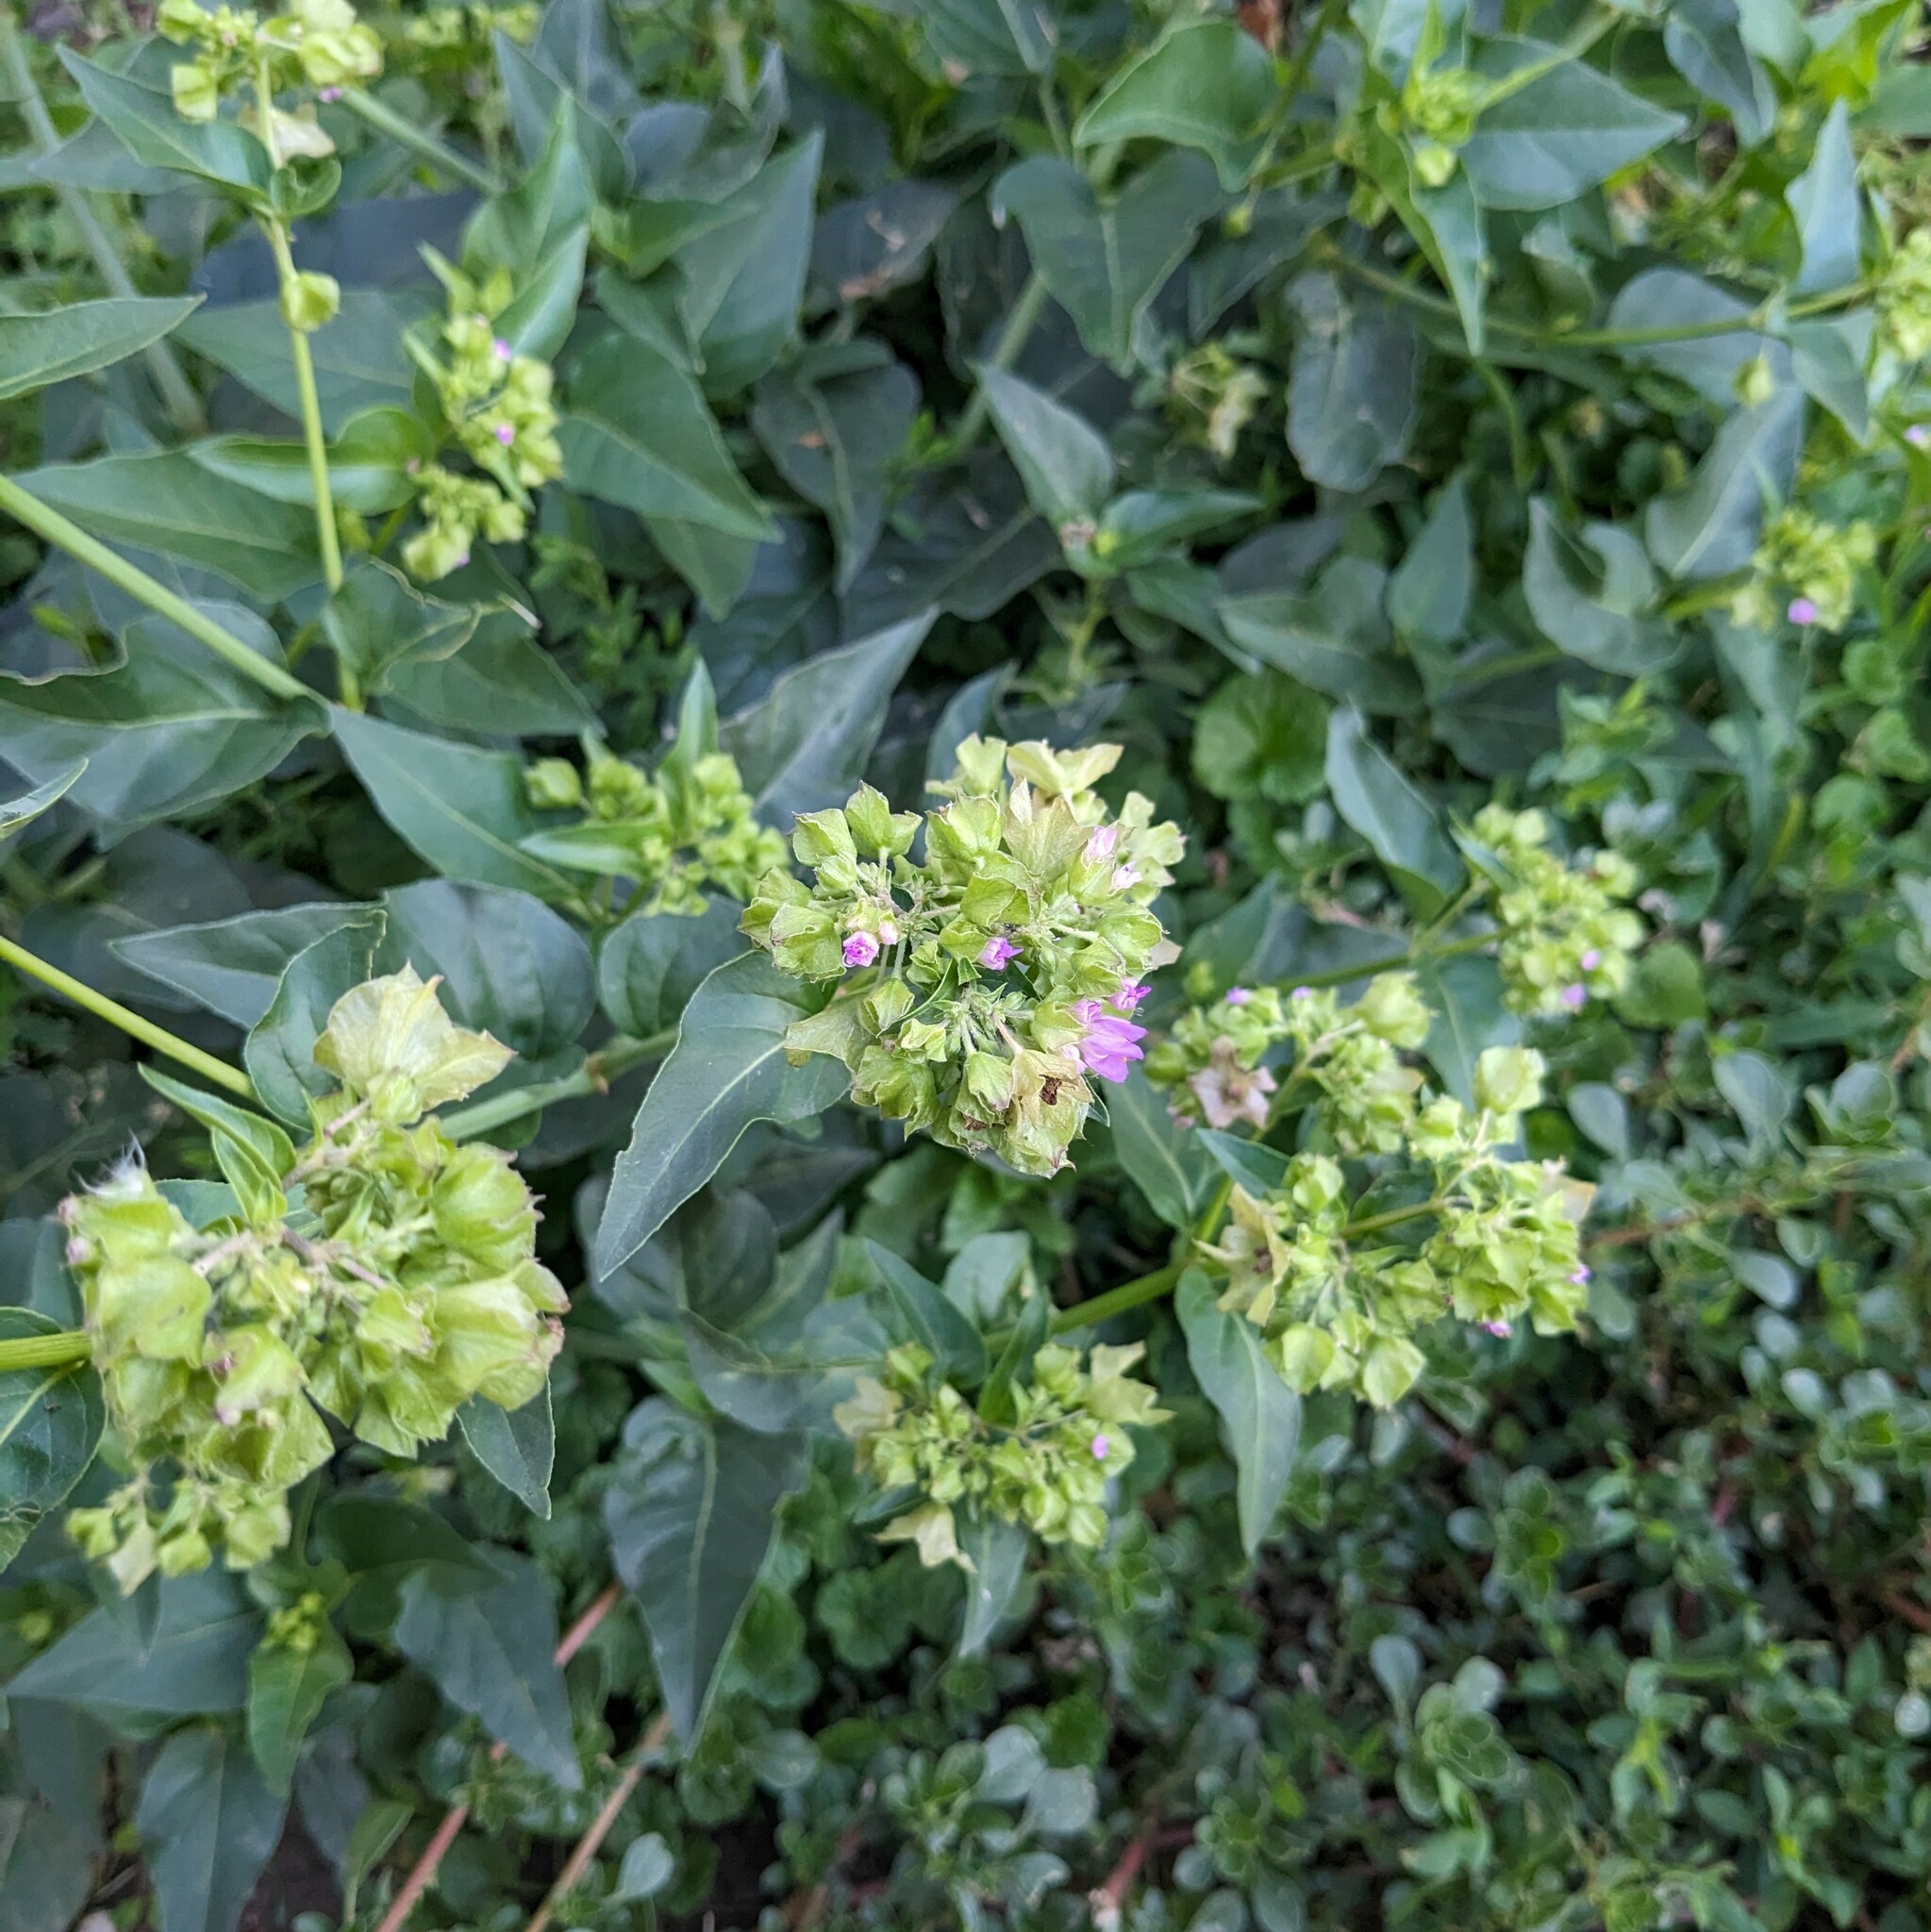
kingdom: Plantae
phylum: Tracheophyta
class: Magnoliopsida
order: Caryophyllales
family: Nyctaginaceae
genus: Mirabilis
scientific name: Mirabilis nyctaginea
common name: Umbrella wort
